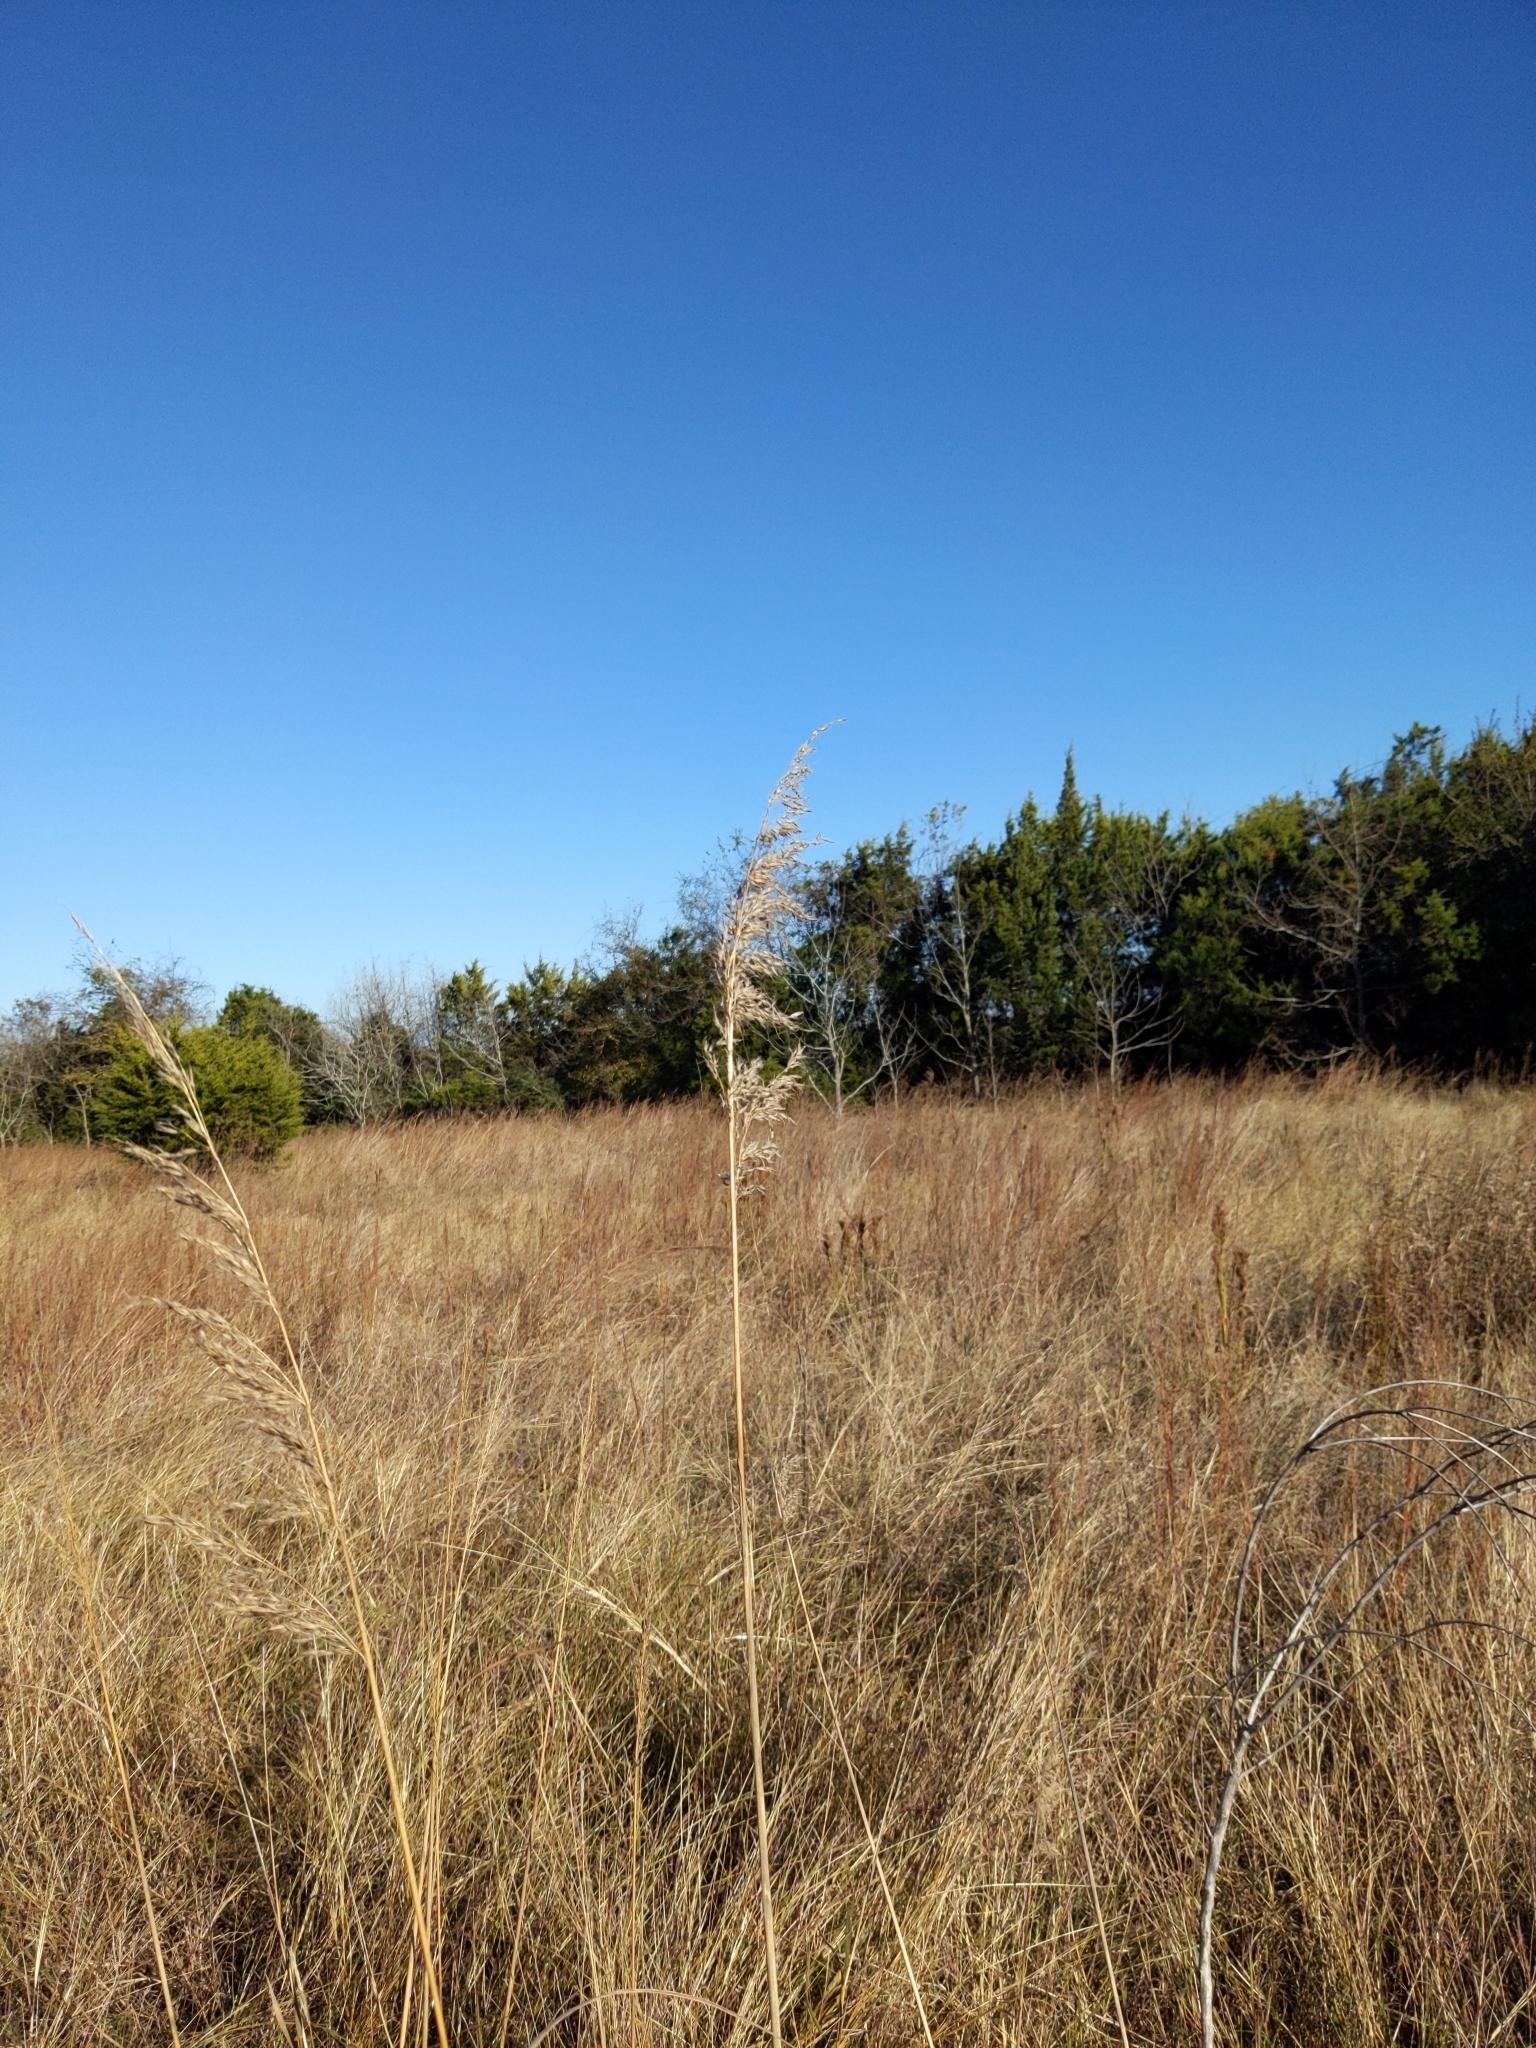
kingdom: Plantae
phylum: Tracheophyta
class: Liliopsida
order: Poales
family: Poaceae
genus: Sorghastrum
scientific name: Sorghastrum nutans
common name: Indian grass
